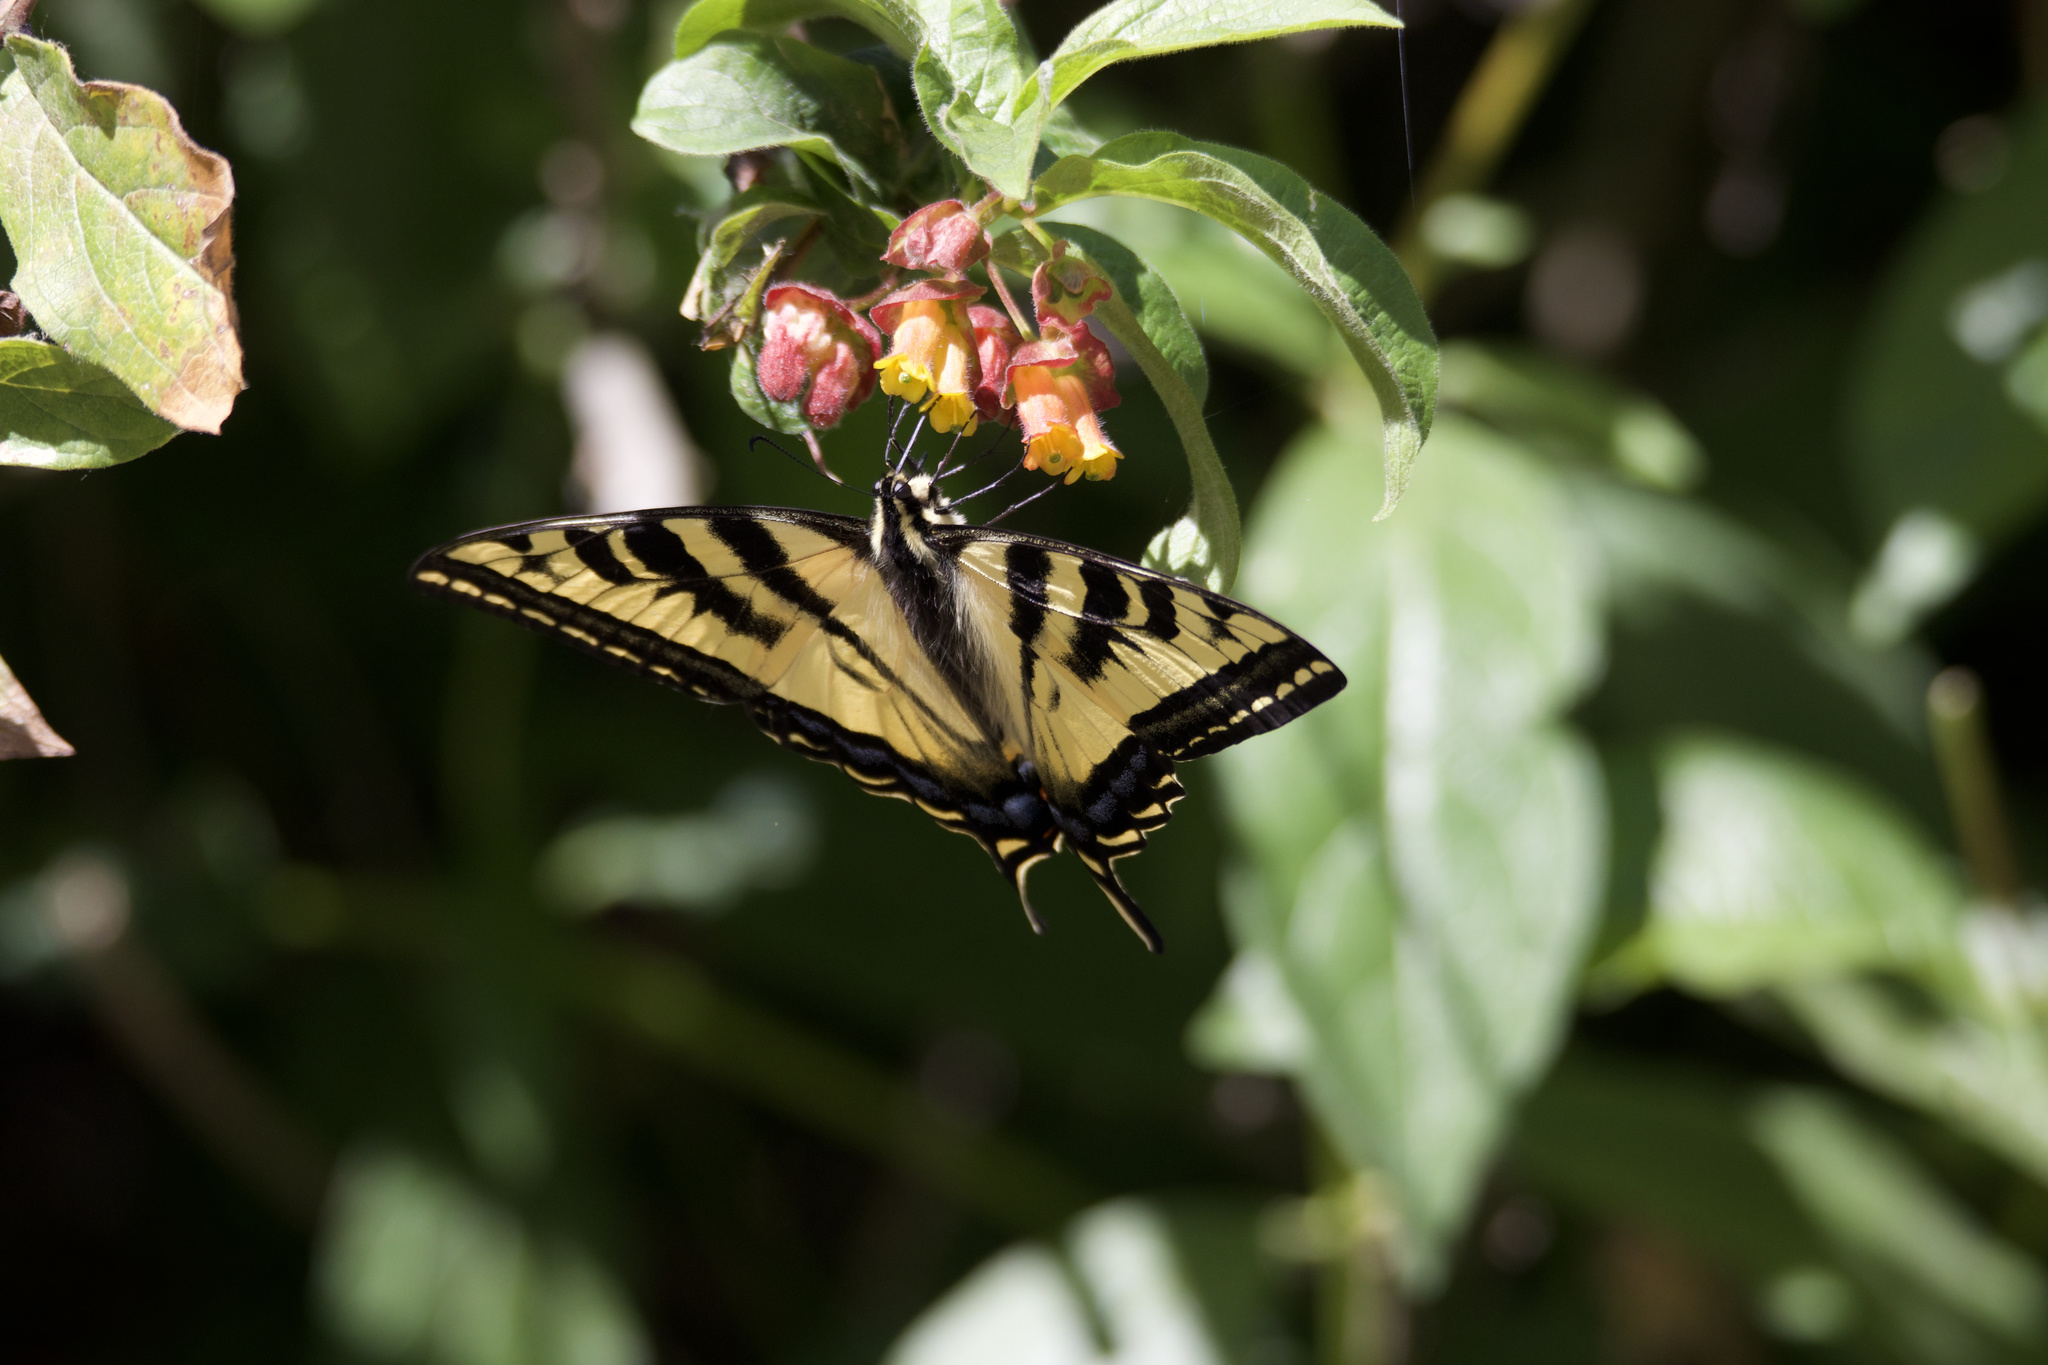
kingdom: Animalia
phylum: Arthropoda
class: Insecta
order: Lepidoptera
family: Papilionidae
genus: Papilio
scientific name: Papilio rutulus
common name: Western tiger swallowtail
